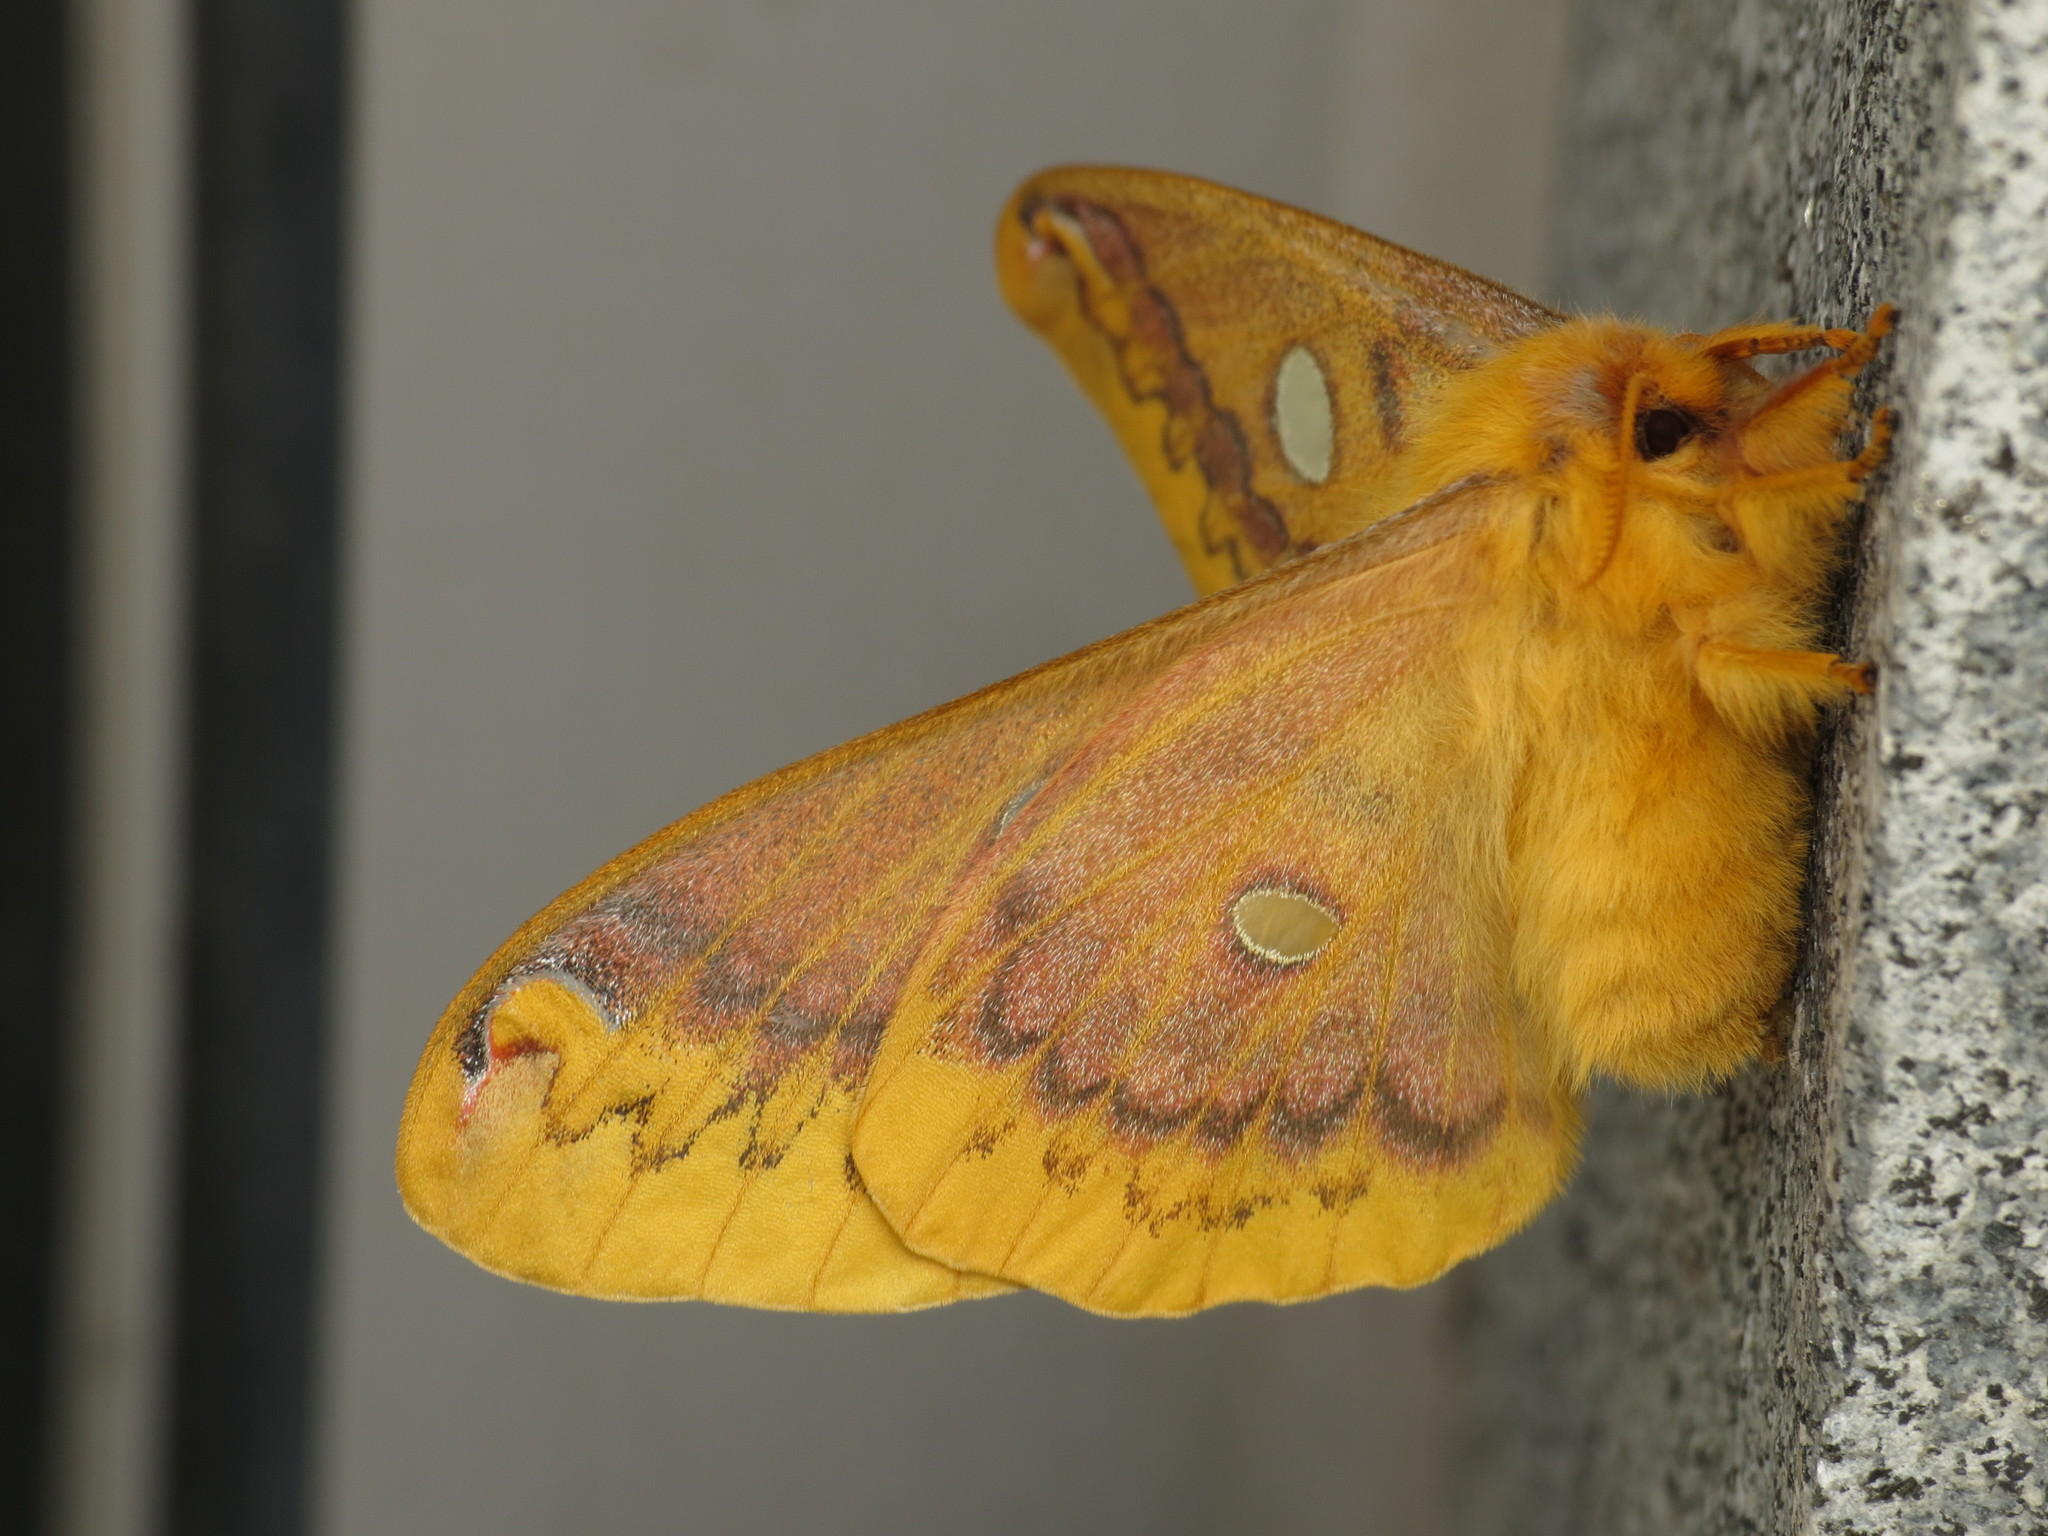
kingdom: Animalia
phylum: Arthropoda
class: Insecta
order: Lepidoptera
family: Saturniidae
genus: Rhodinia
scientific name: Rhodinia fugax
